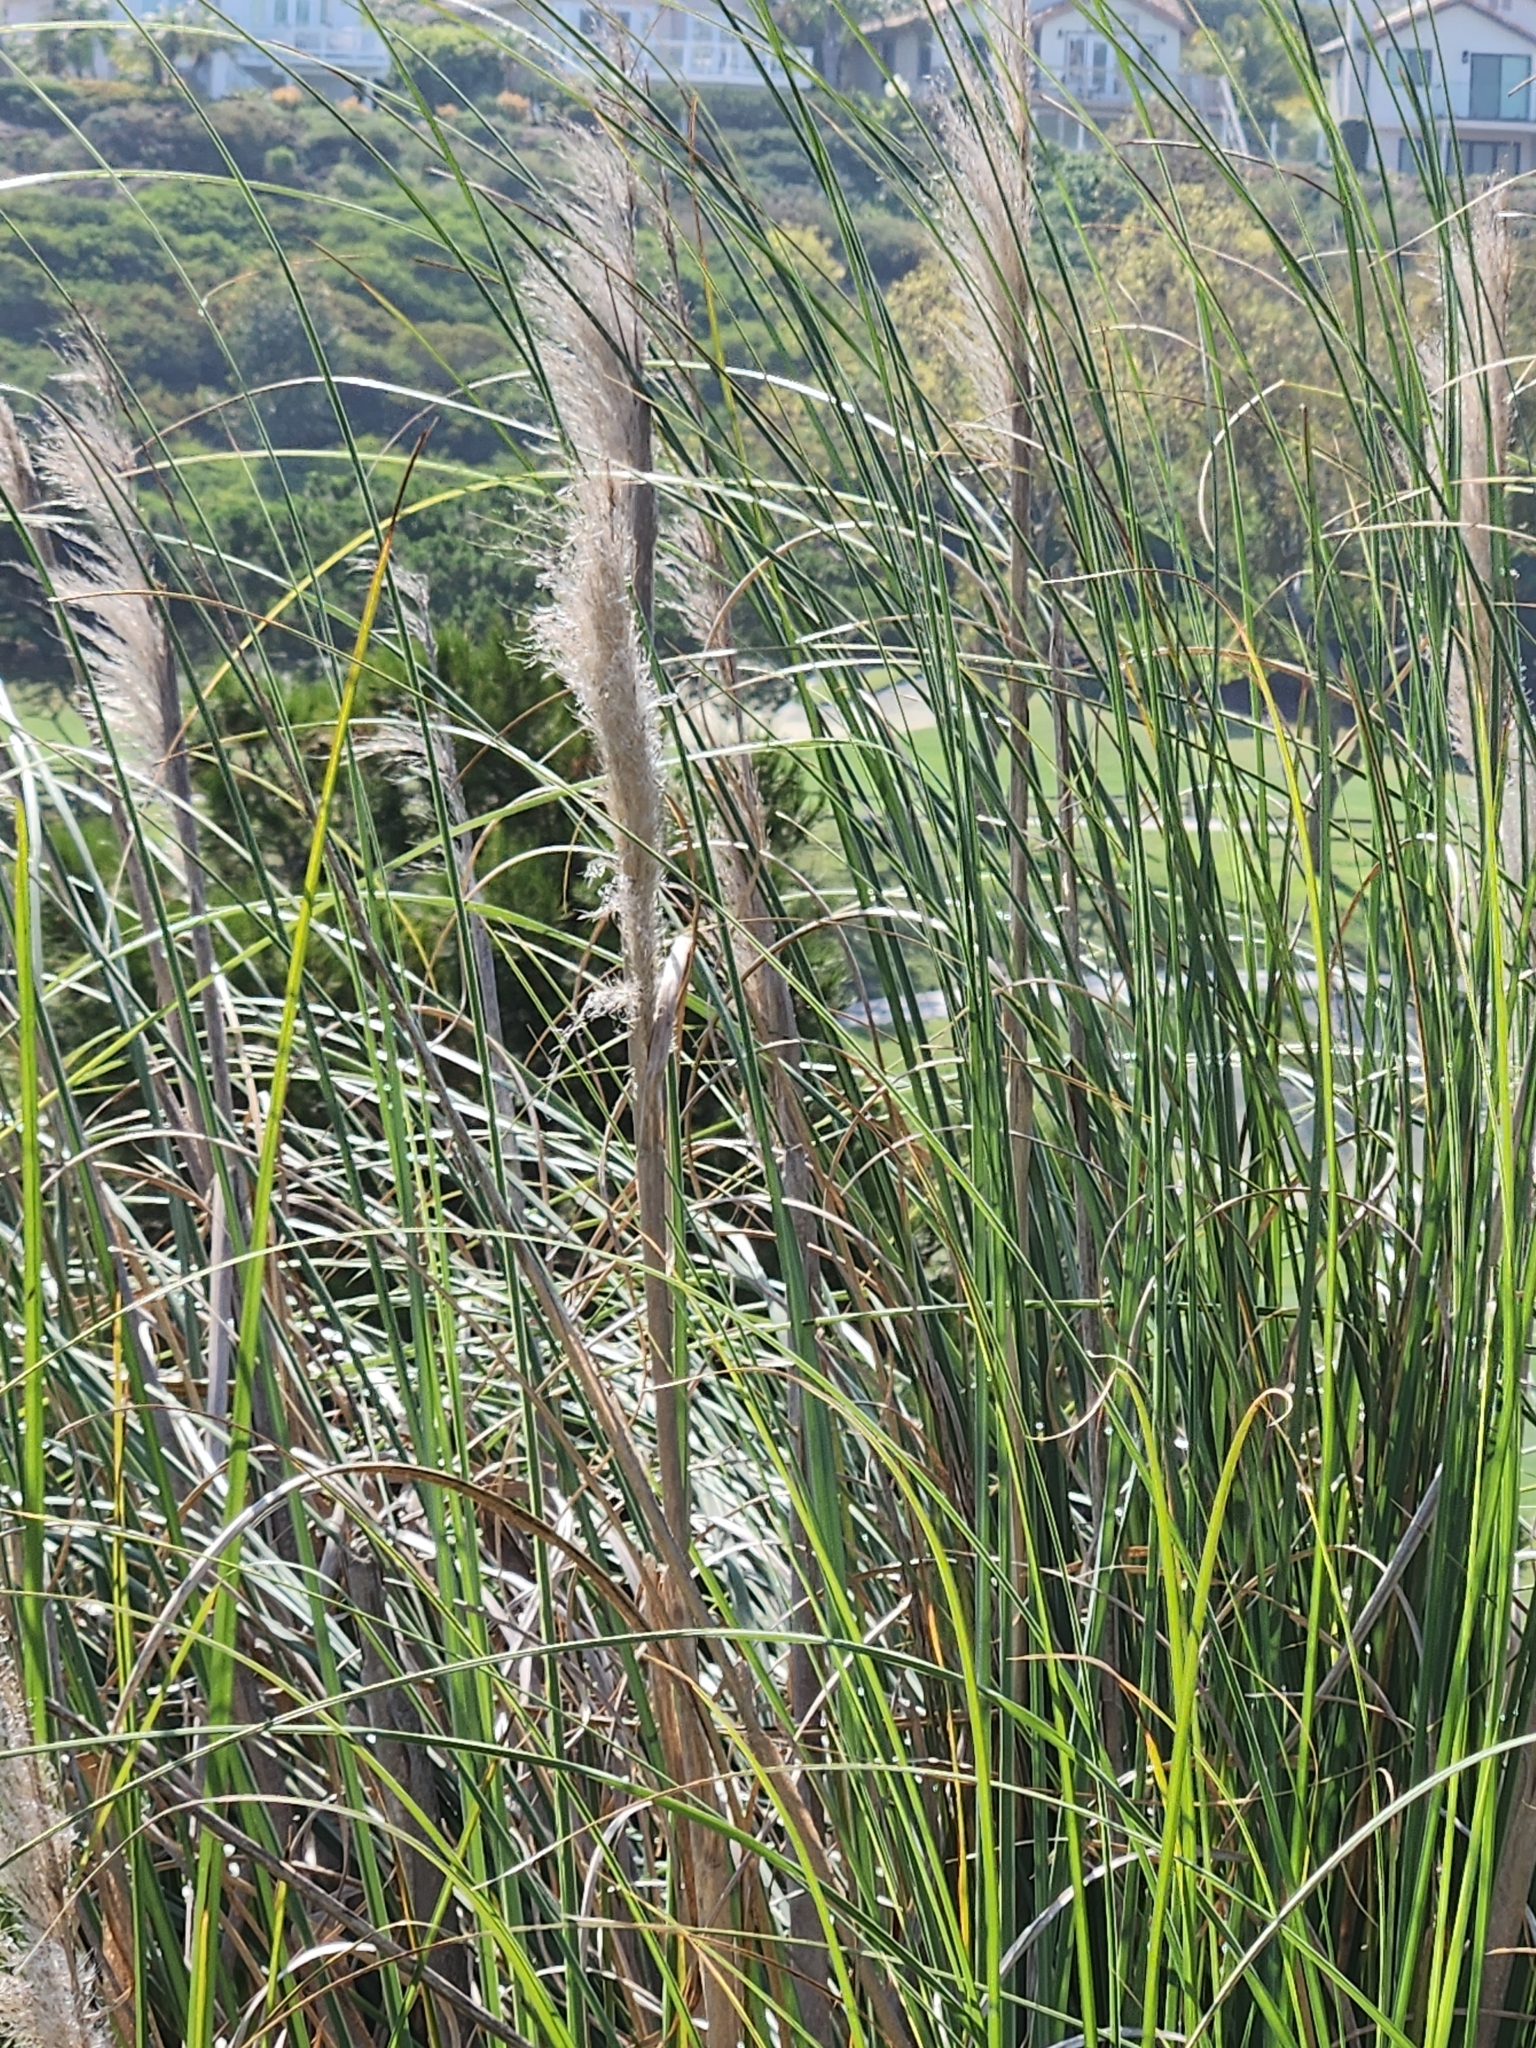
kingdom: Plantae
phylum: Tracheophyta
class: Liliopsida
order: Poales
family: Poaceae
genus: Cortaderia
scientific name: Cortaderia selloana
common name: Uruguayan pampas grass
